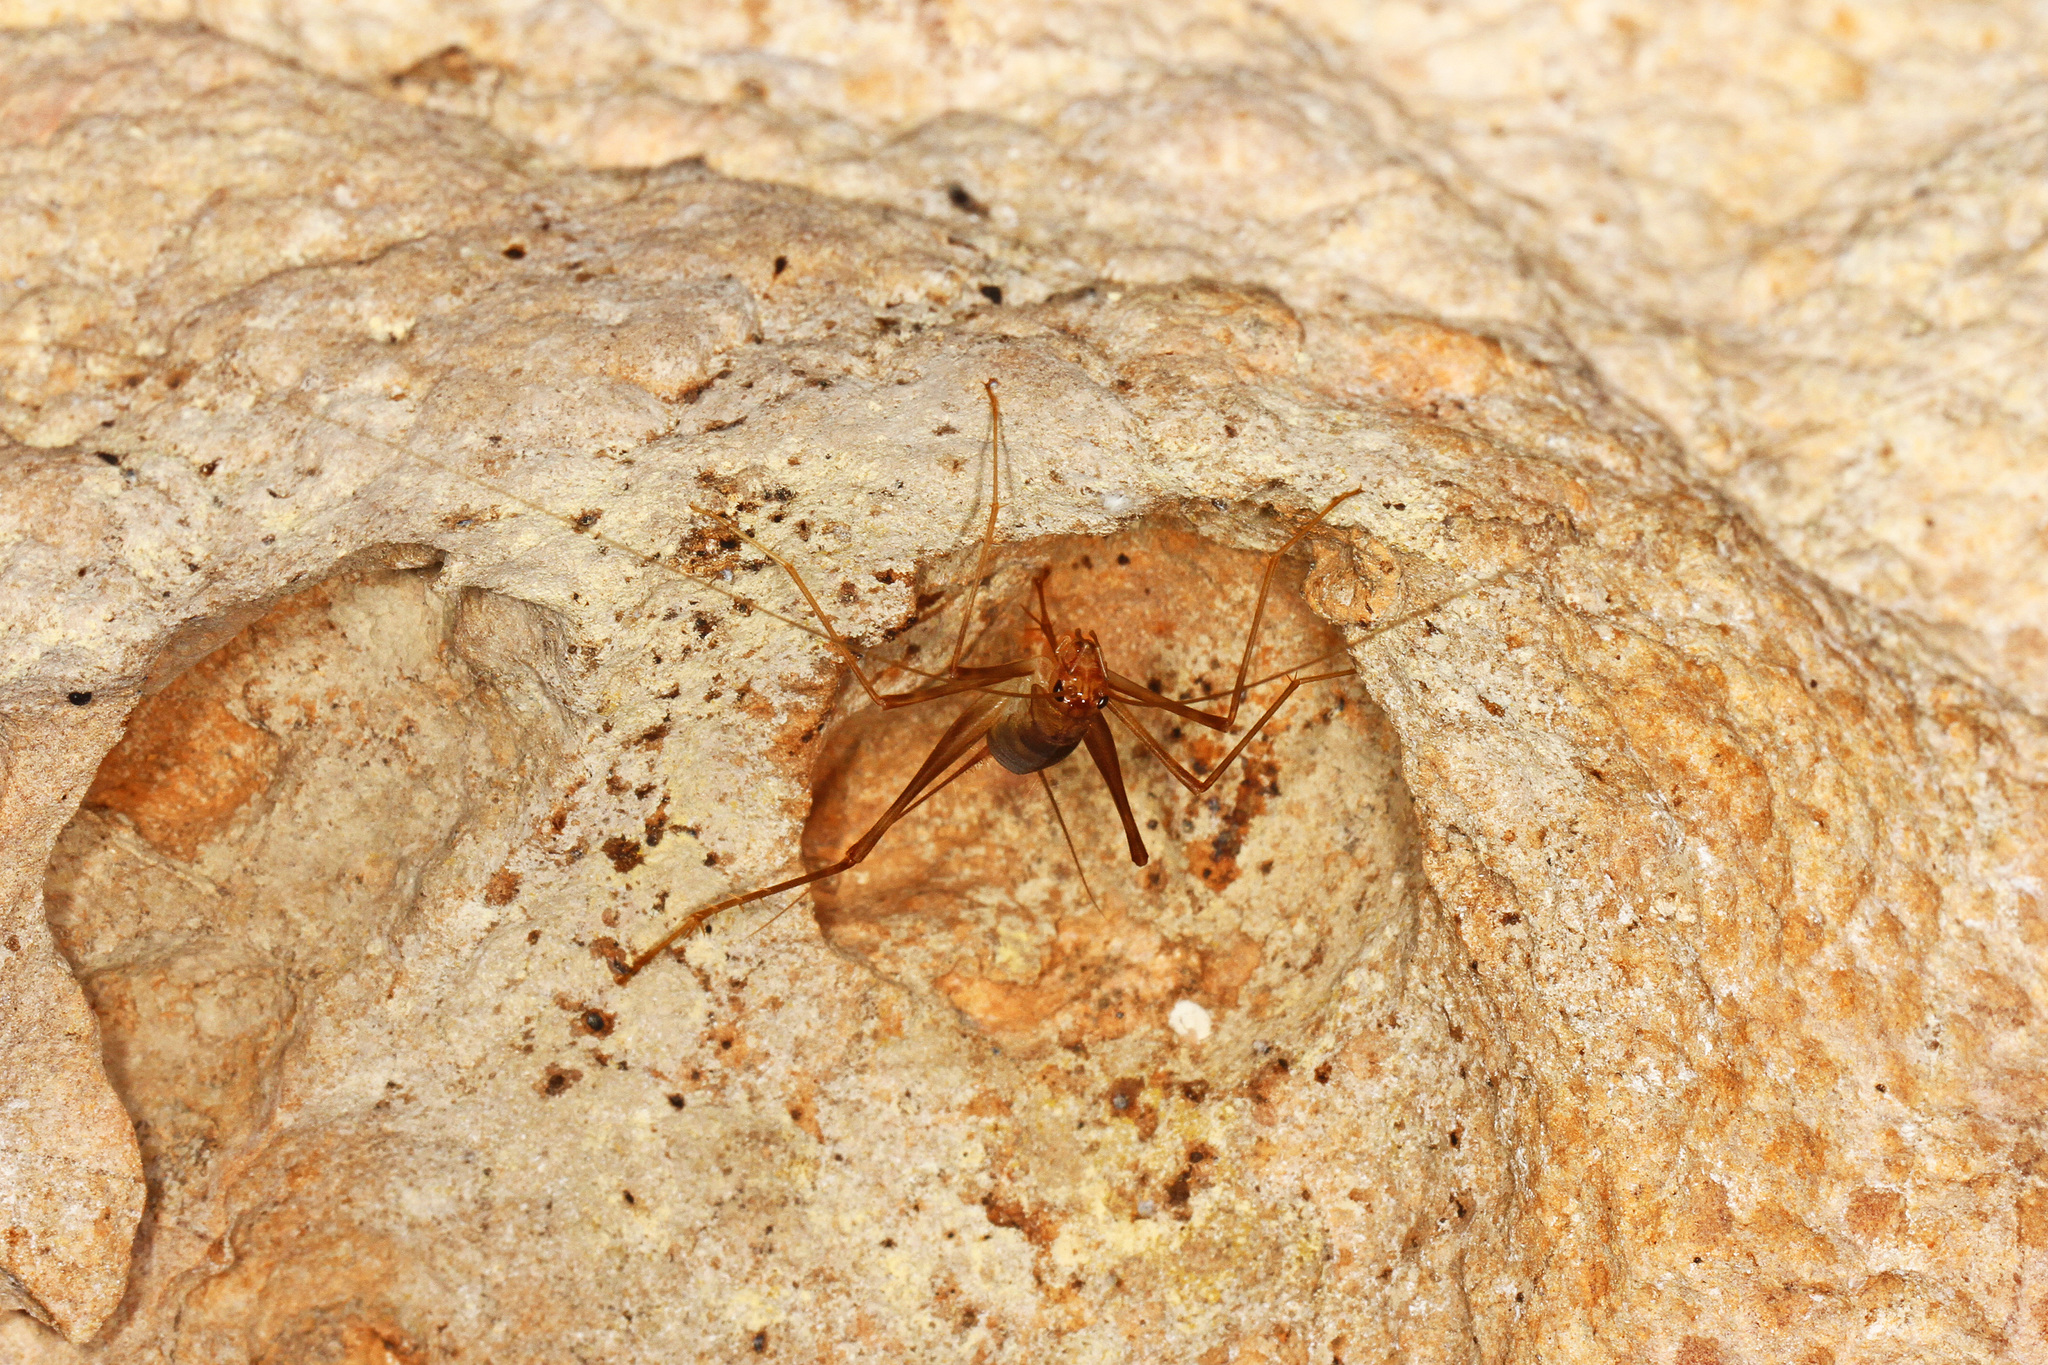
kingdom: Animalia
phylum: Arthropoda
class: Insecta
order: Orthoptera
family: Phalangopsidae
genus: Mayagryllus
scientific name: Mayagryllus apterus
